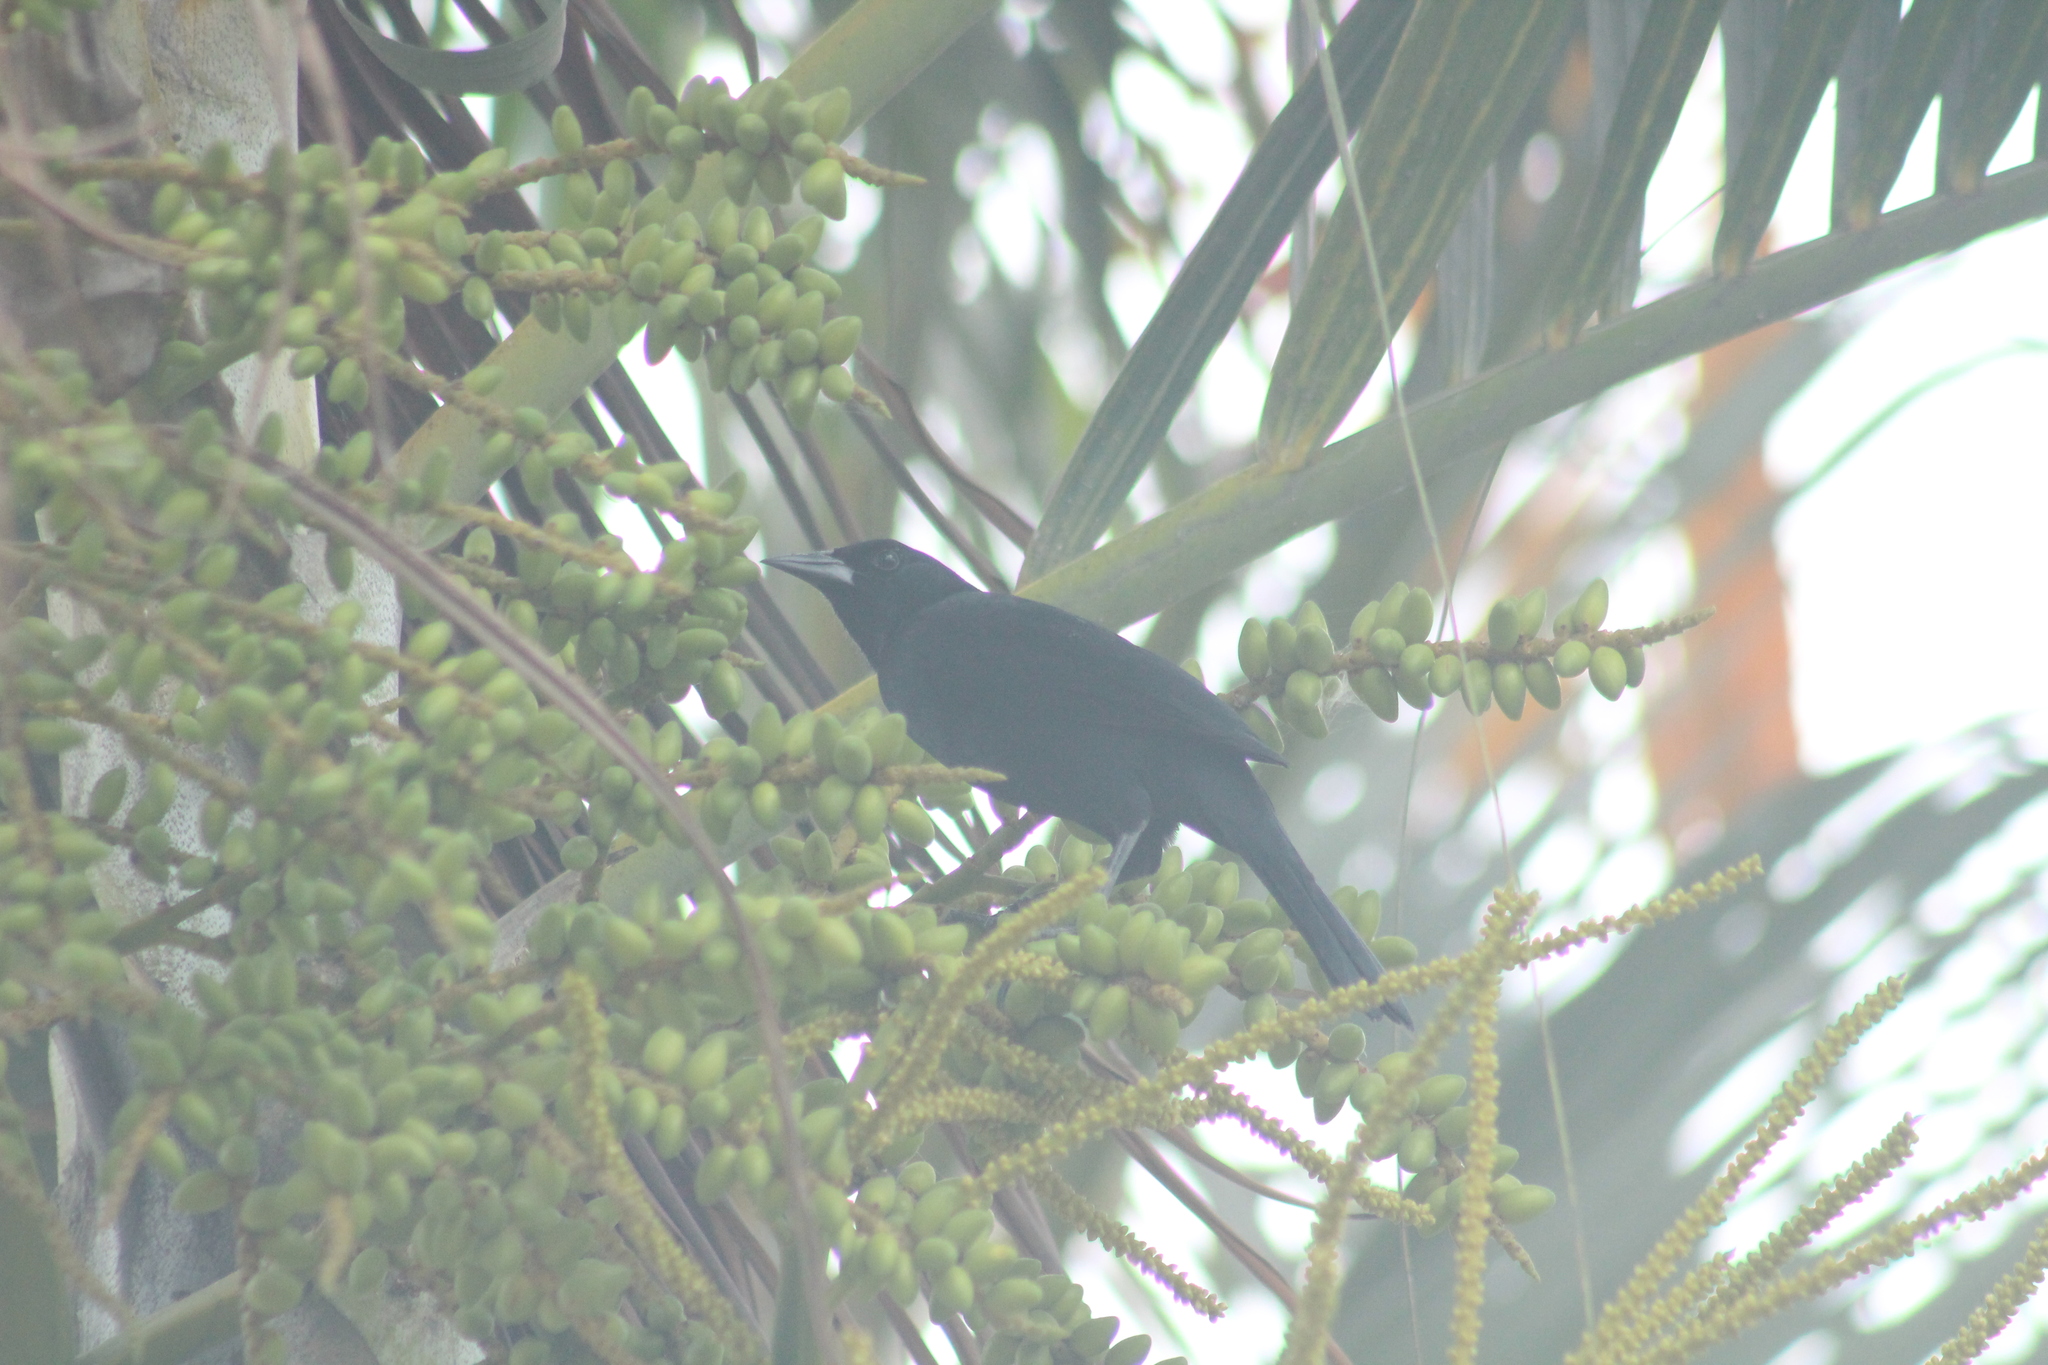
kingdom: Animalia
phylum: Chordata
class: Aves
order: Passeriformes
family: Icteridae
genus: Molothrus
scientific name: Molothrus bonariensis
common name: Shiny cowbird
